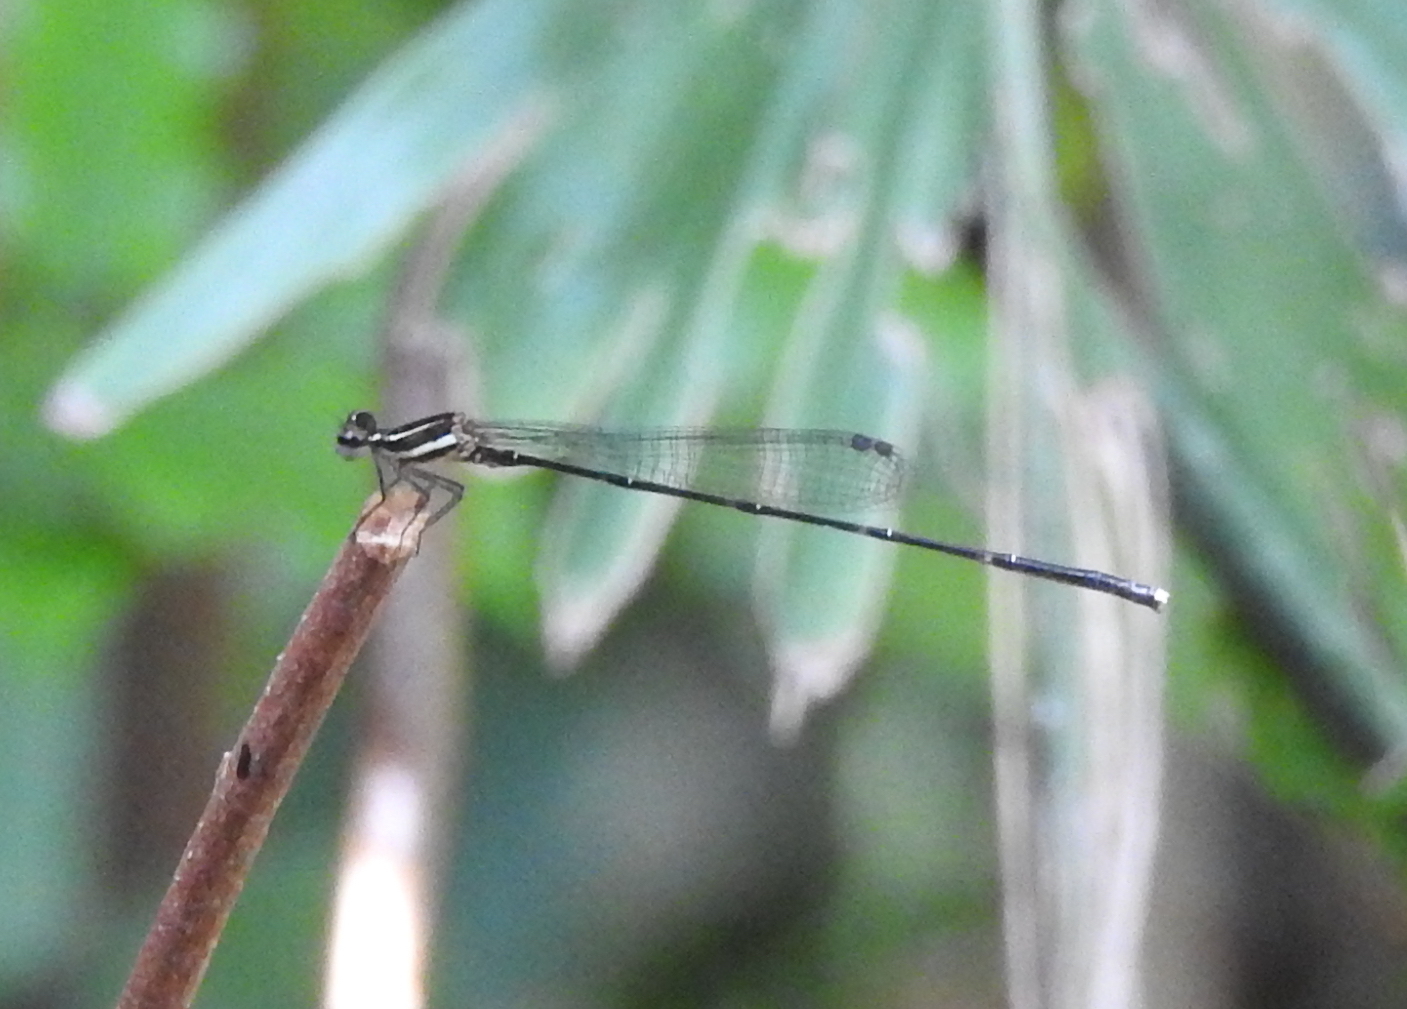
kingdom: Animalia
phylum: Arthropoda
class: Insecta
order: Odonata
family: Platycnemididae
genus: Prodasineura
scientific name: Prodasineura autumnalis
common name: Black threadtail
